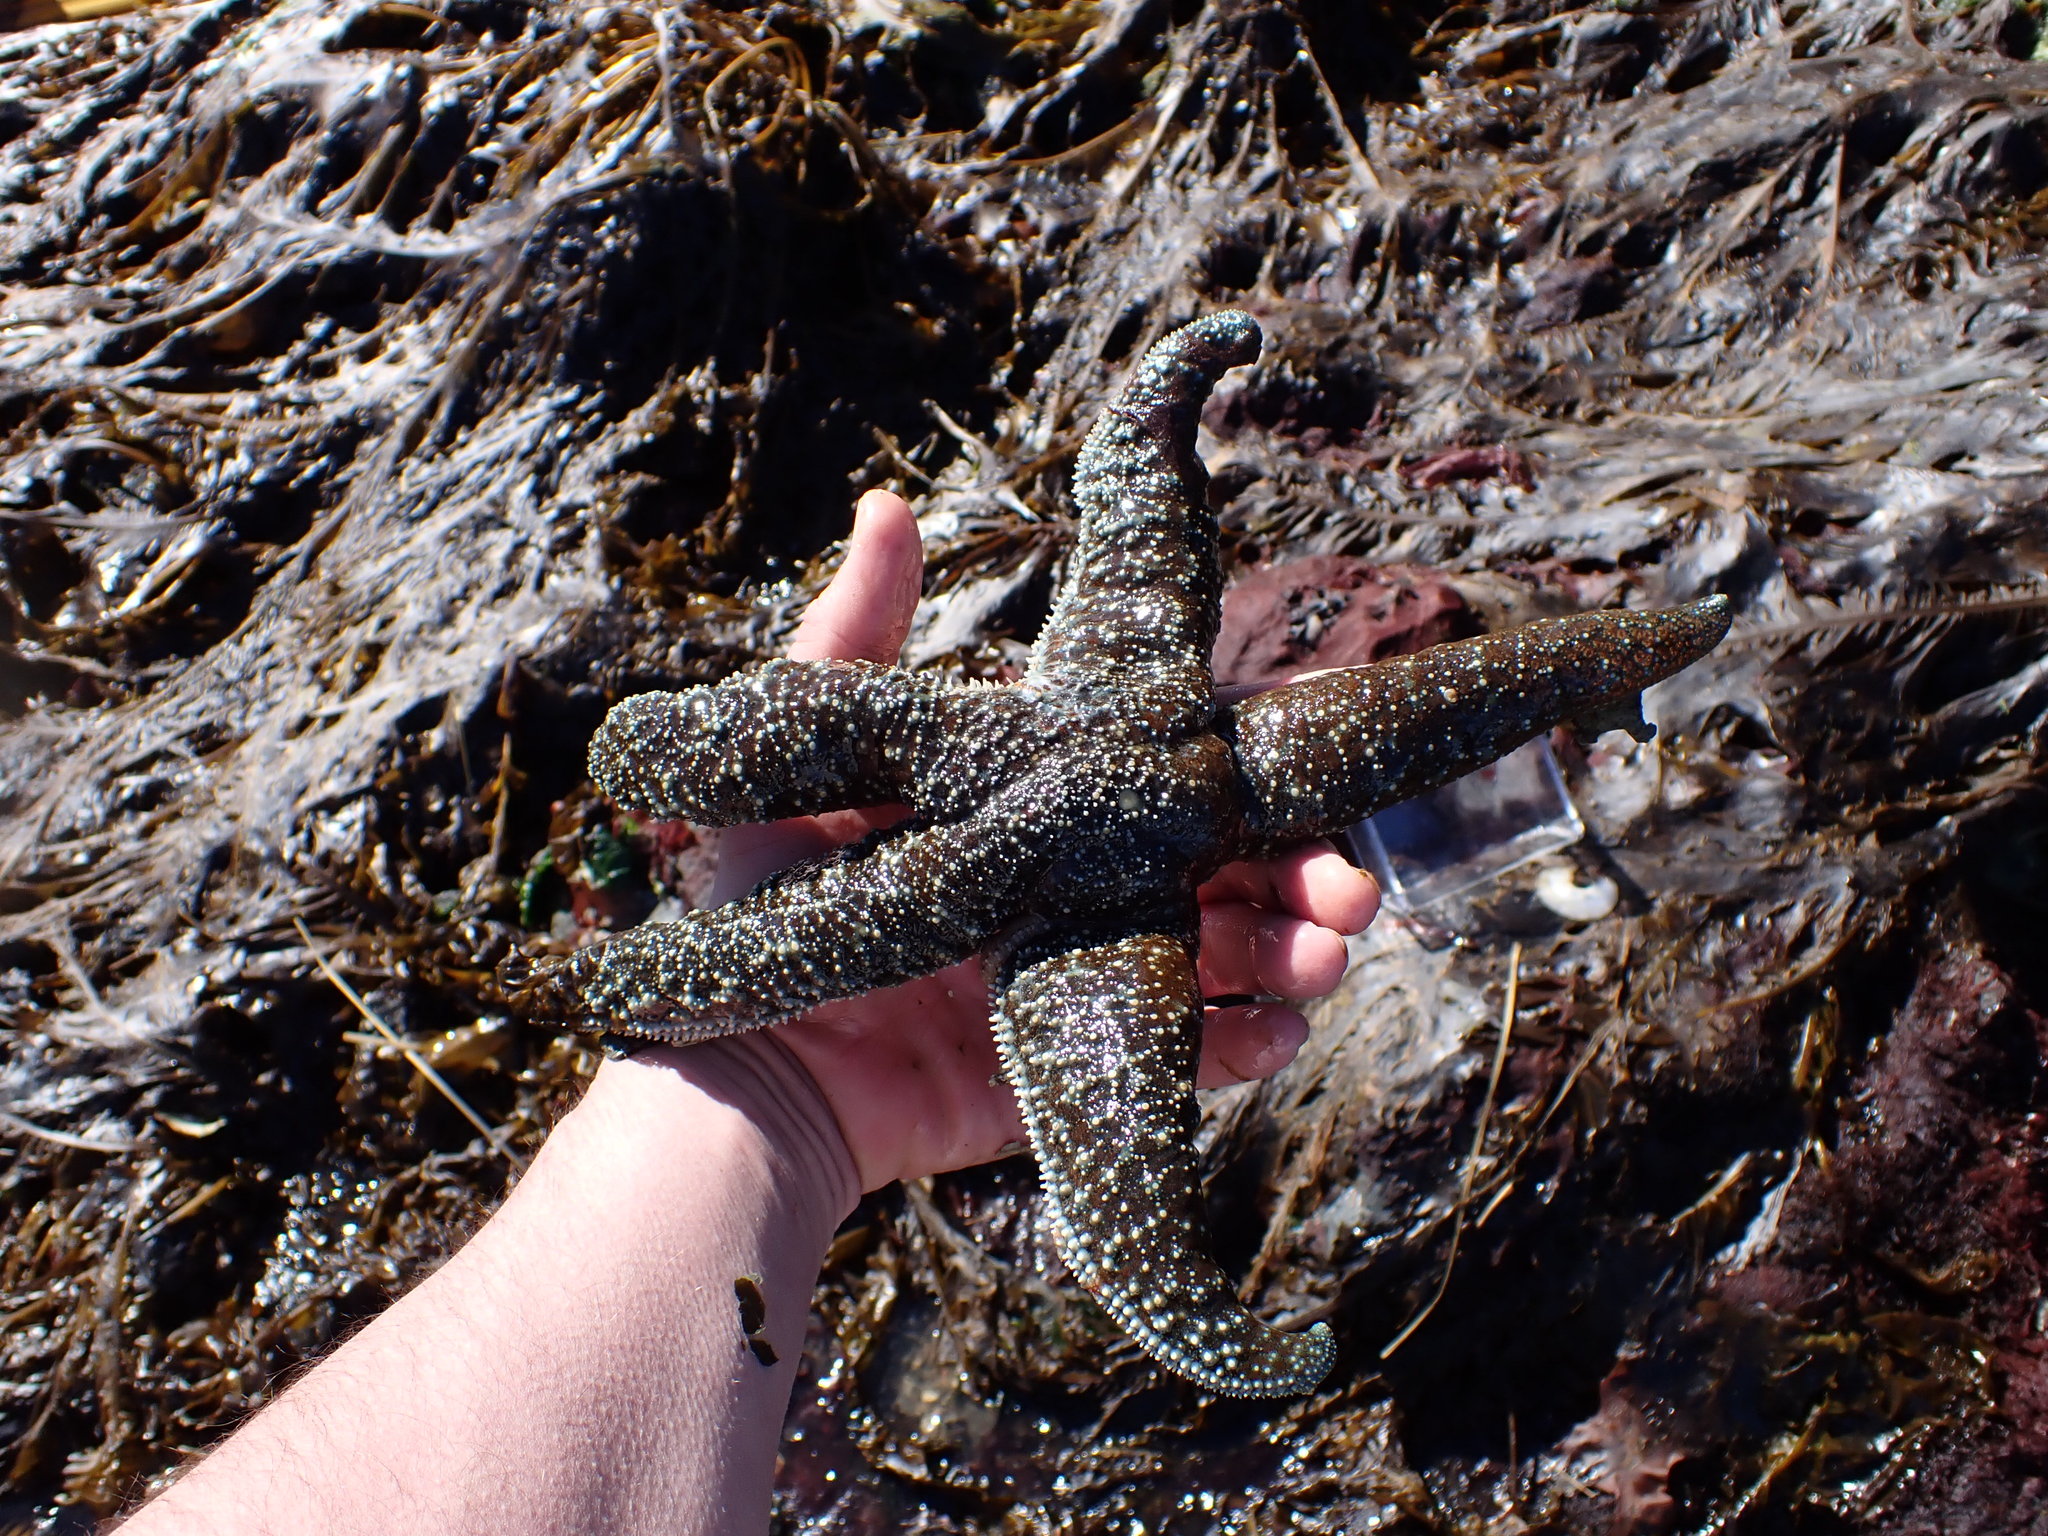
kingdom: Animalia
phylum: Echinodermata
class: Asteroidea
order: Forcipulatida
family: Asteriidae
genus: Evasterias
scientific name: Evasterias troschelii
